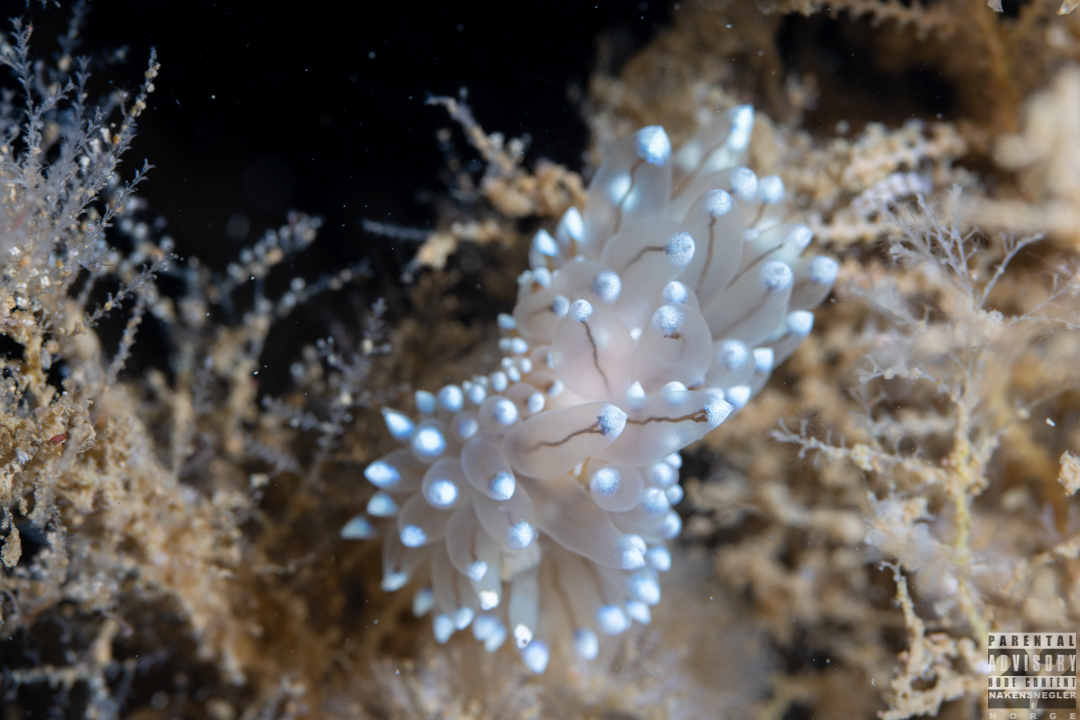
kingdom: Animalia
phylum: Mollusca
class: Gastropoda
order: Nudibranchia
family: Janolidae
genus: Antiopella
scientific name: Antiopella cristata
